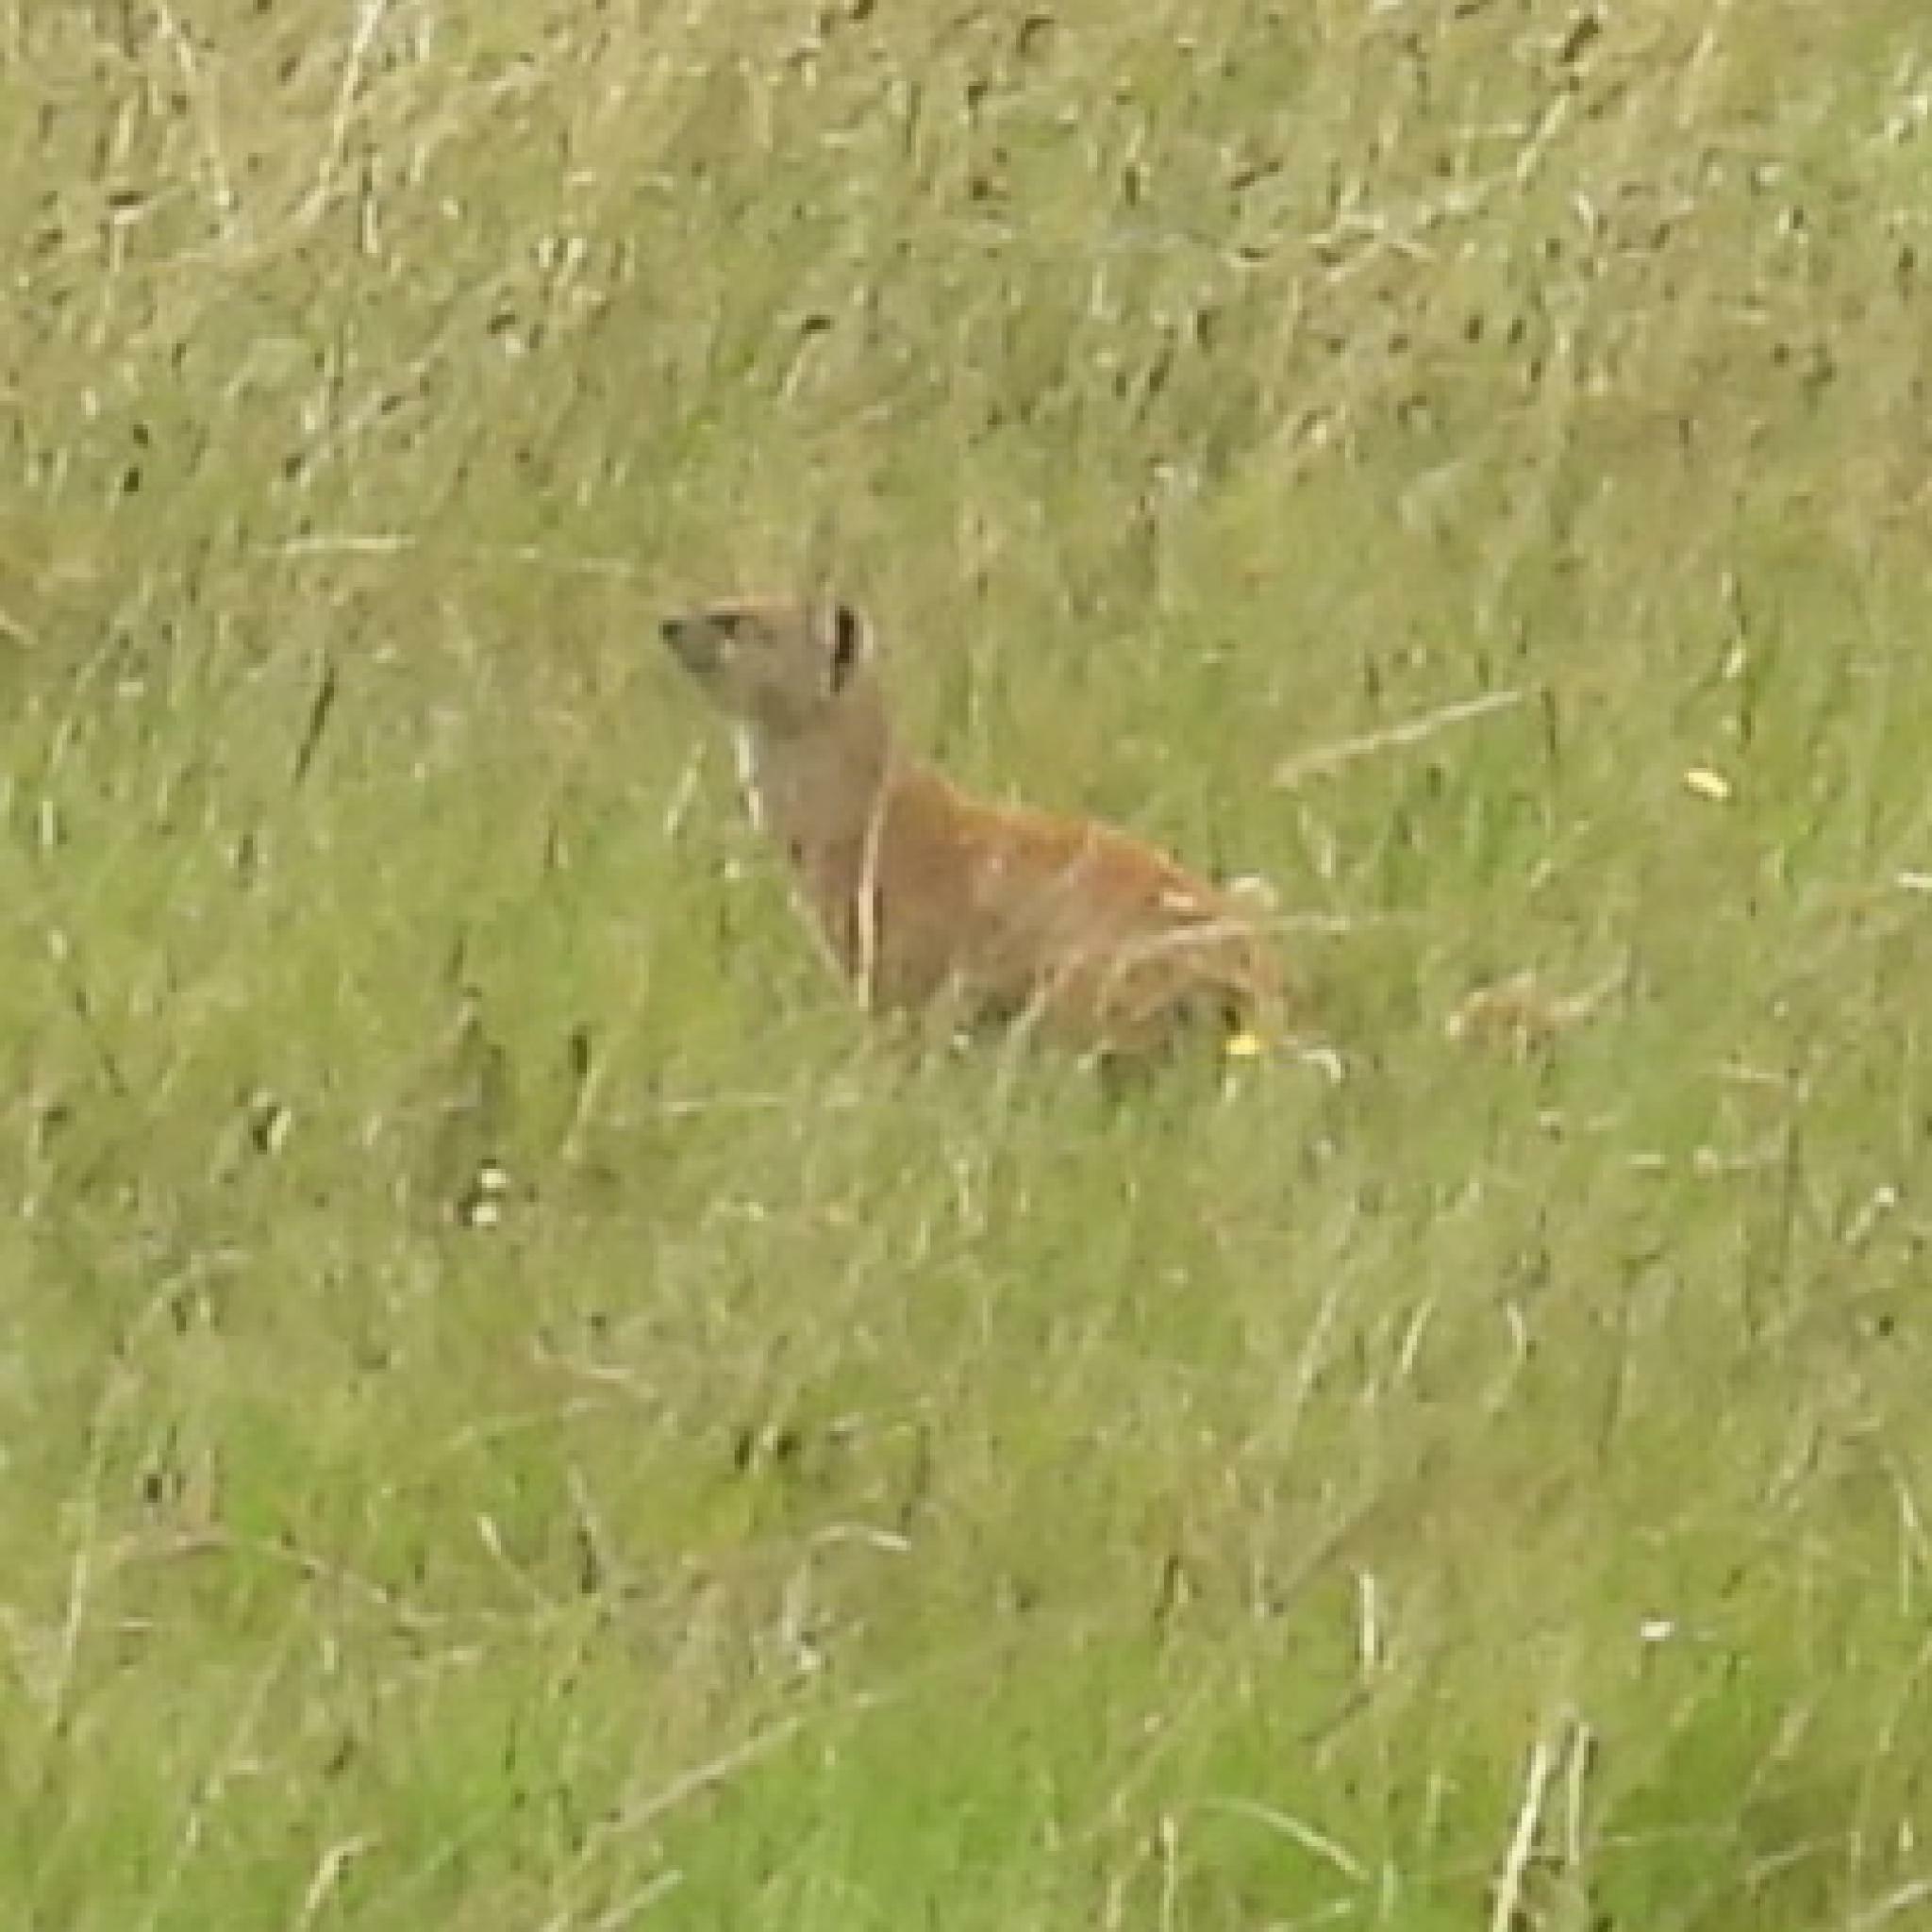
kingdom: Animalia
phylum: Chordata
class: Mammalia
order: Carnivora
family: Herpestidae
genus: Cynictis
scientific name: Cynictis penicillata
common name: Yellow mongoose
